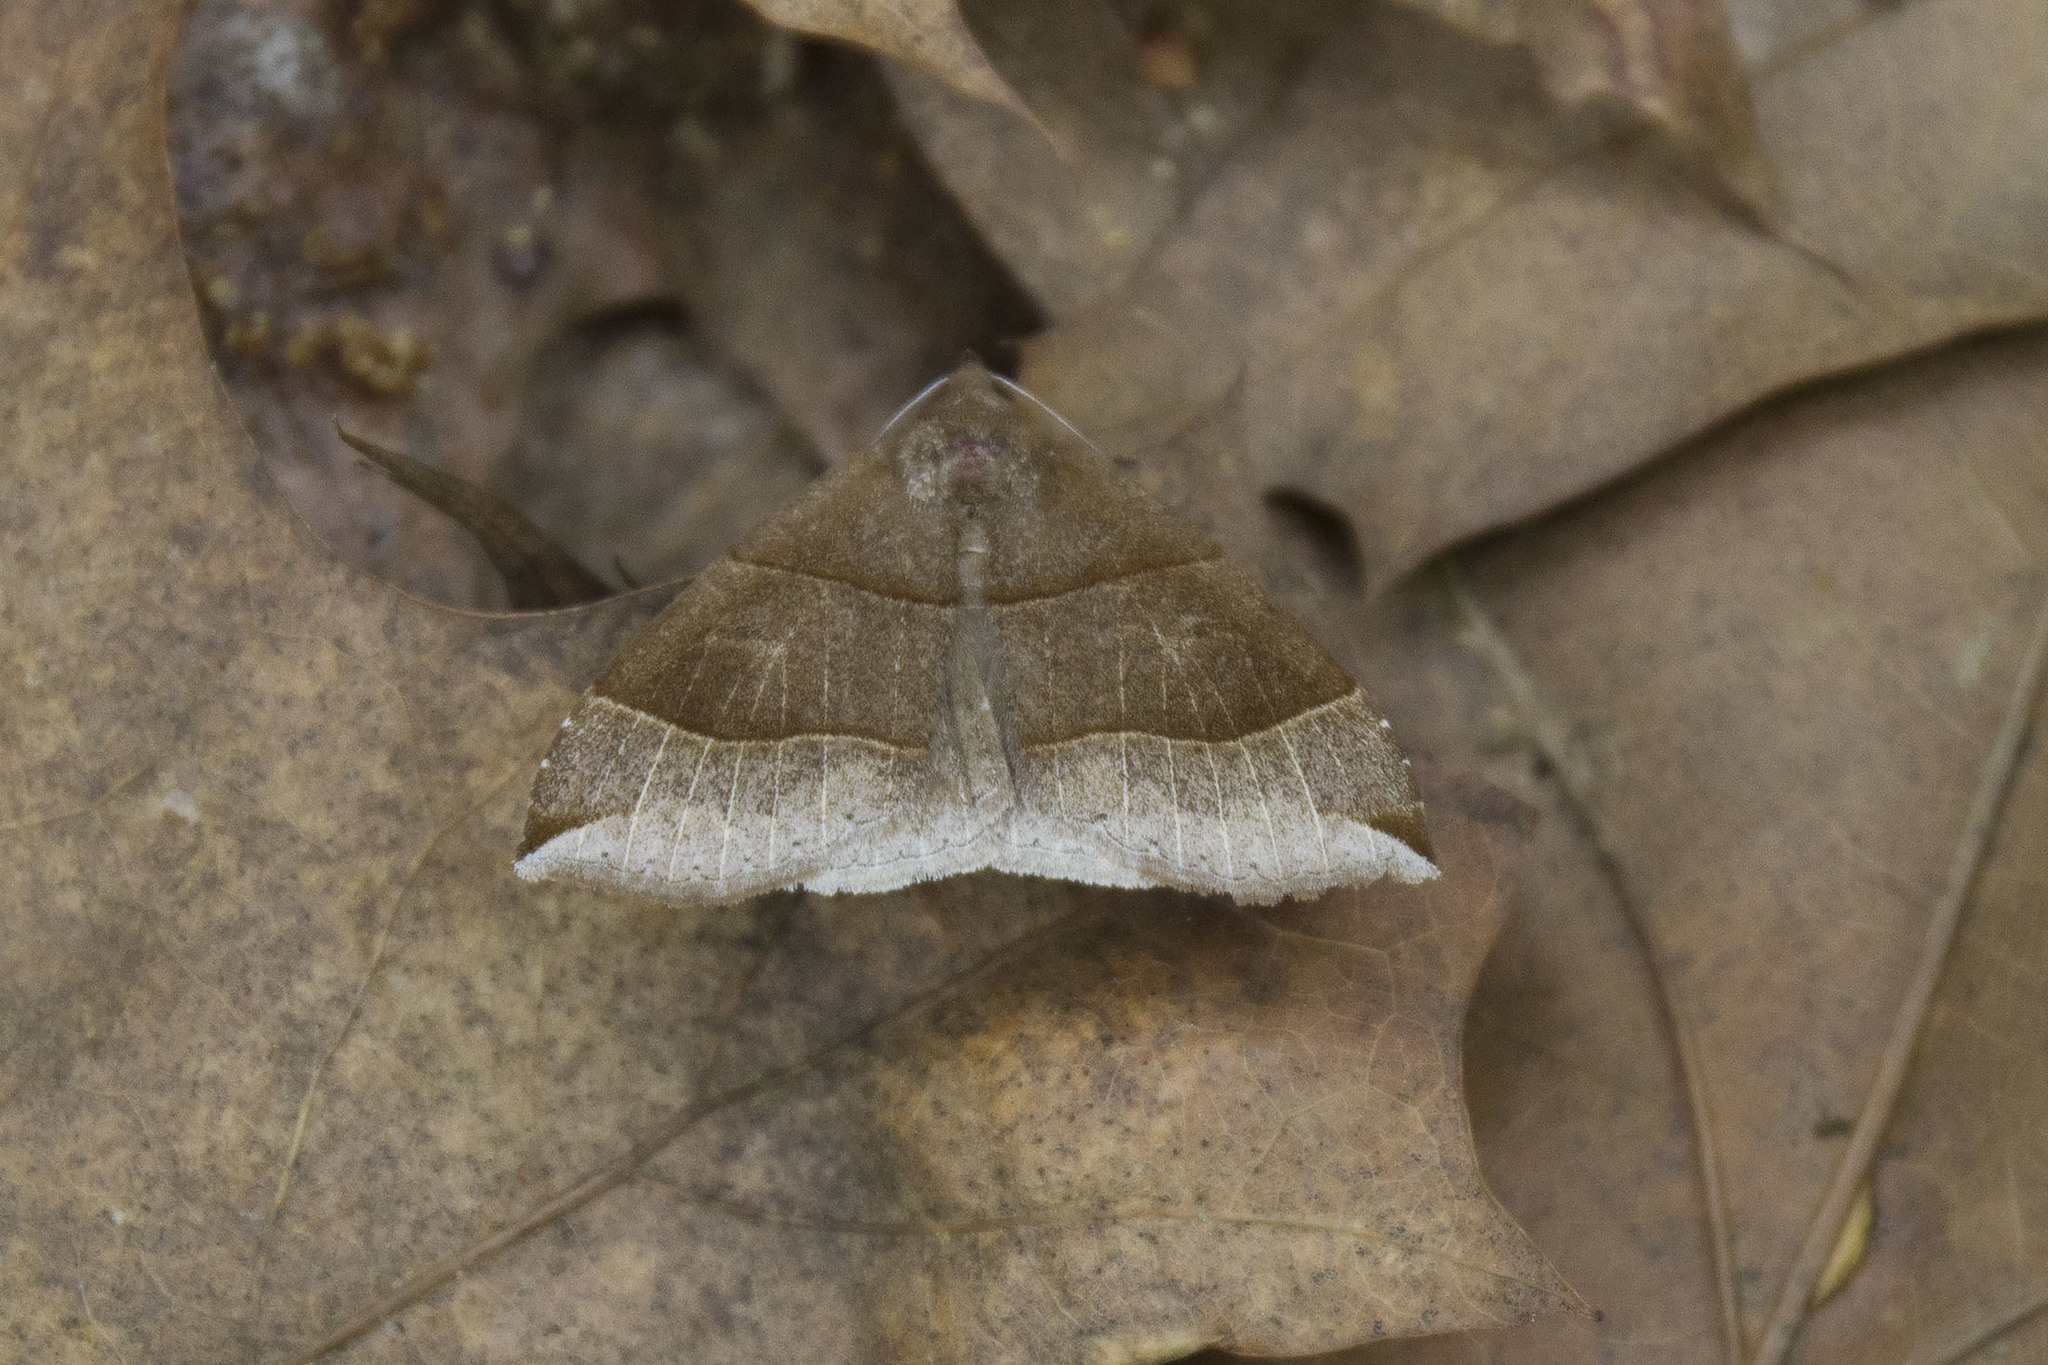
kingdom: Animalia
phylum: Arthropoda
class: Insecta
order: Lepidoptera
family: Erebidae
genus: Parallelia
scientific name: Parallelia bistriaris
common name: Maple looper moth
